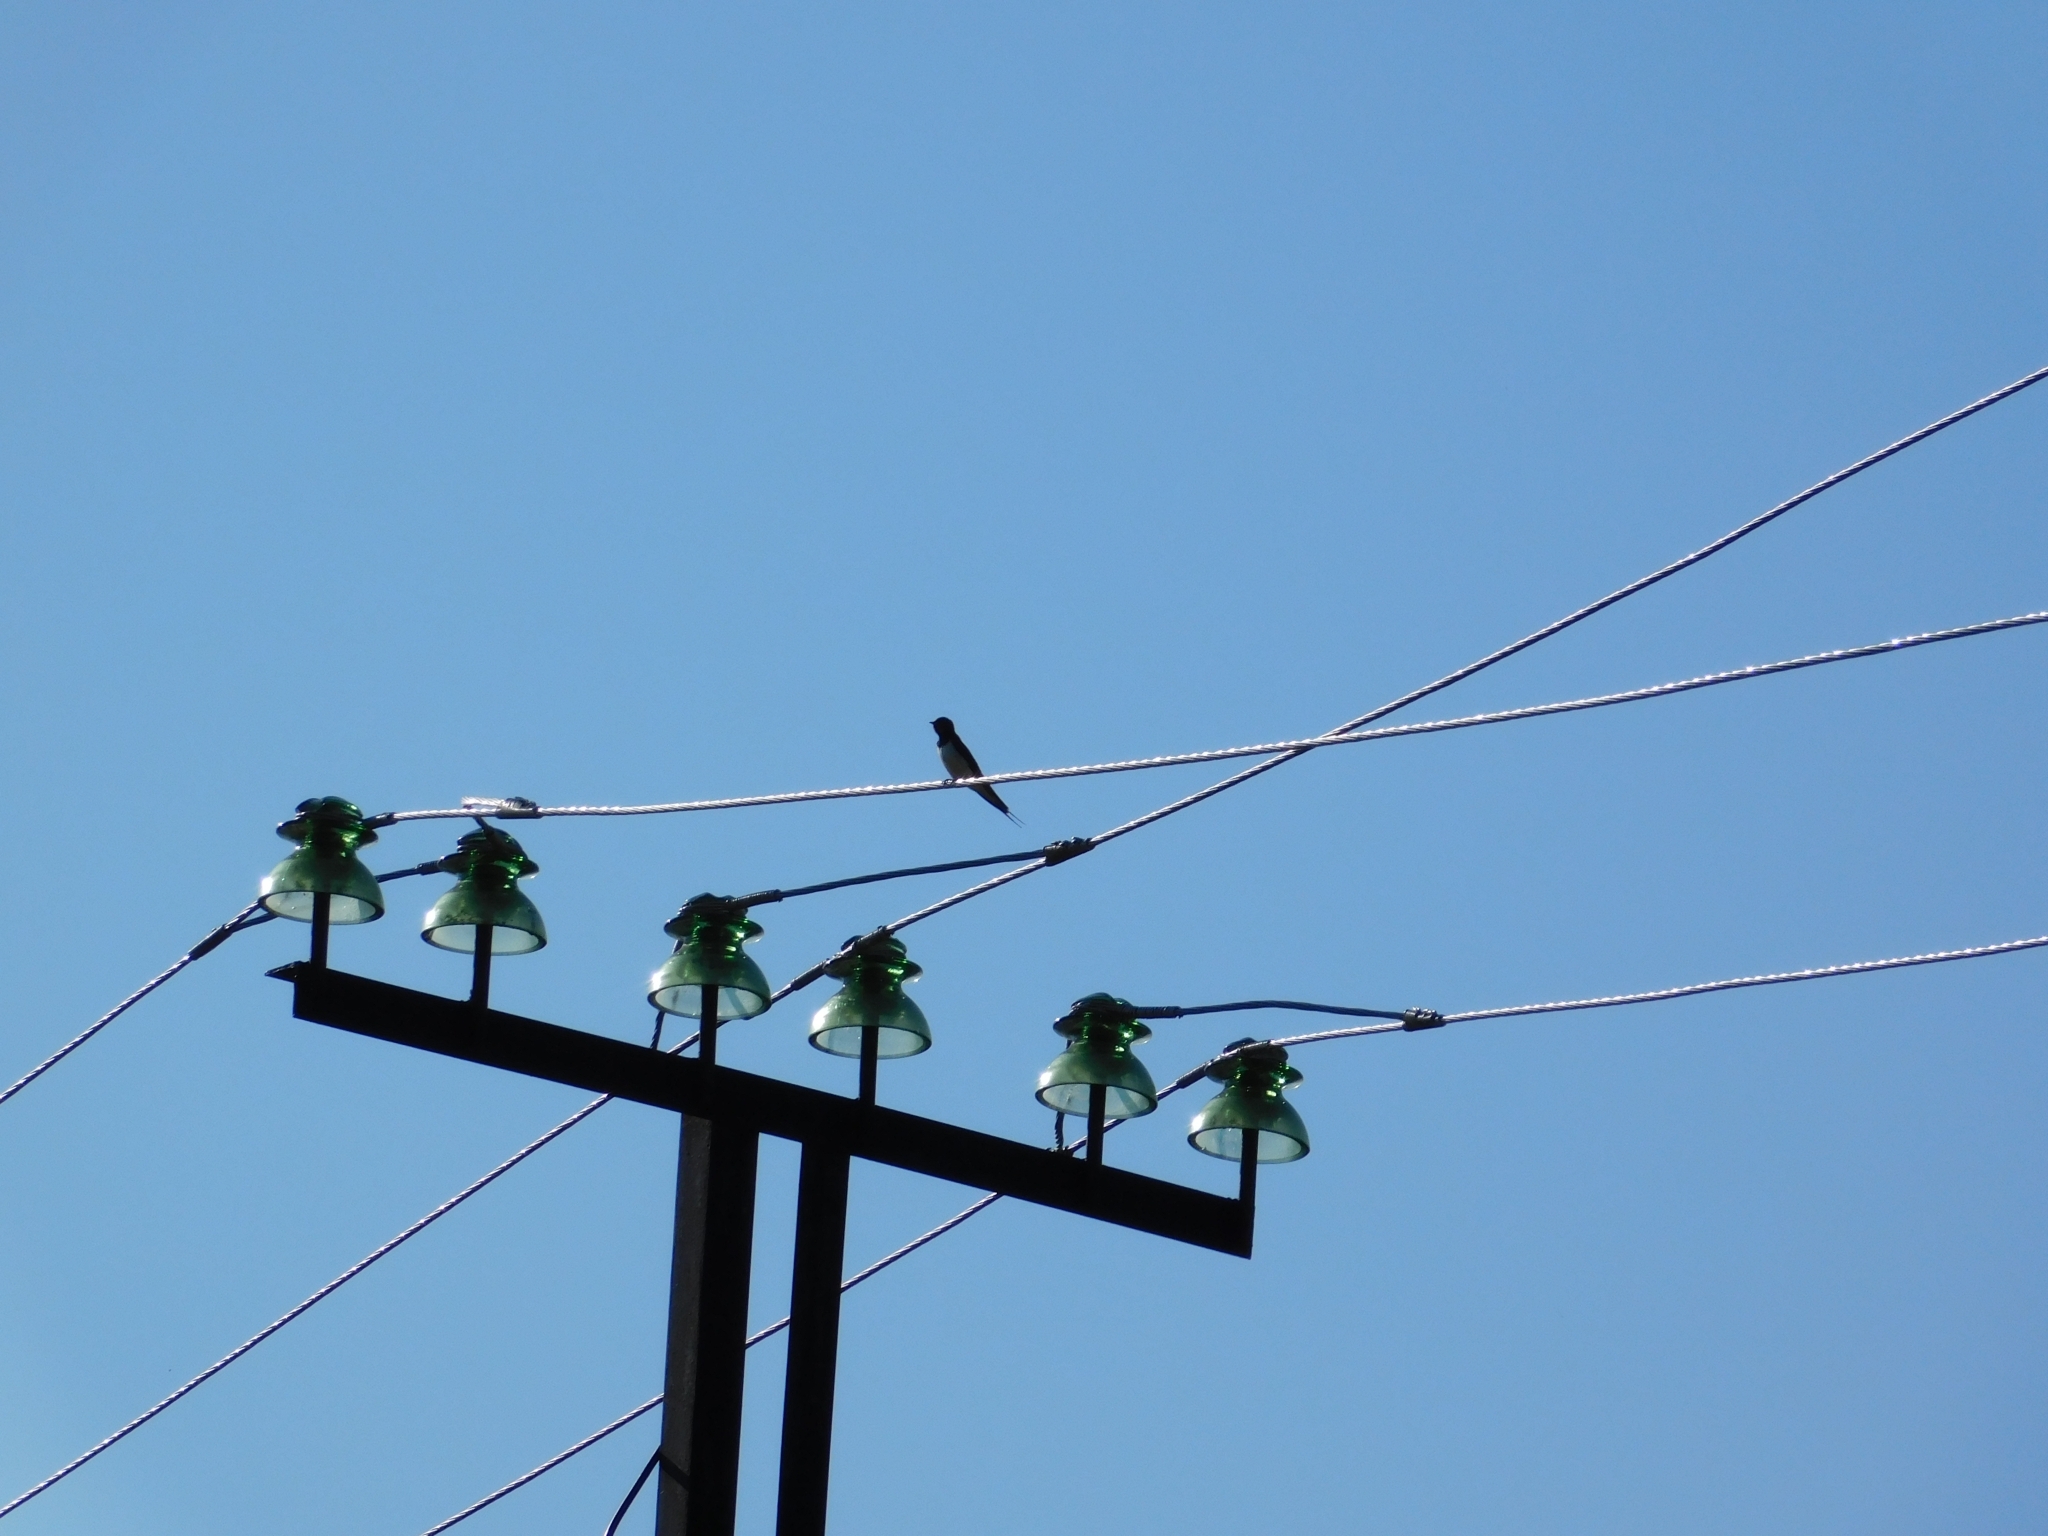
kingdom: Animalia
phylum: Chordata
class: Aves
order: Passeriformes
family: Hirundinidae
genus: Hirundo
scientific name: Hirundo rustica
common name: Barn swallow
